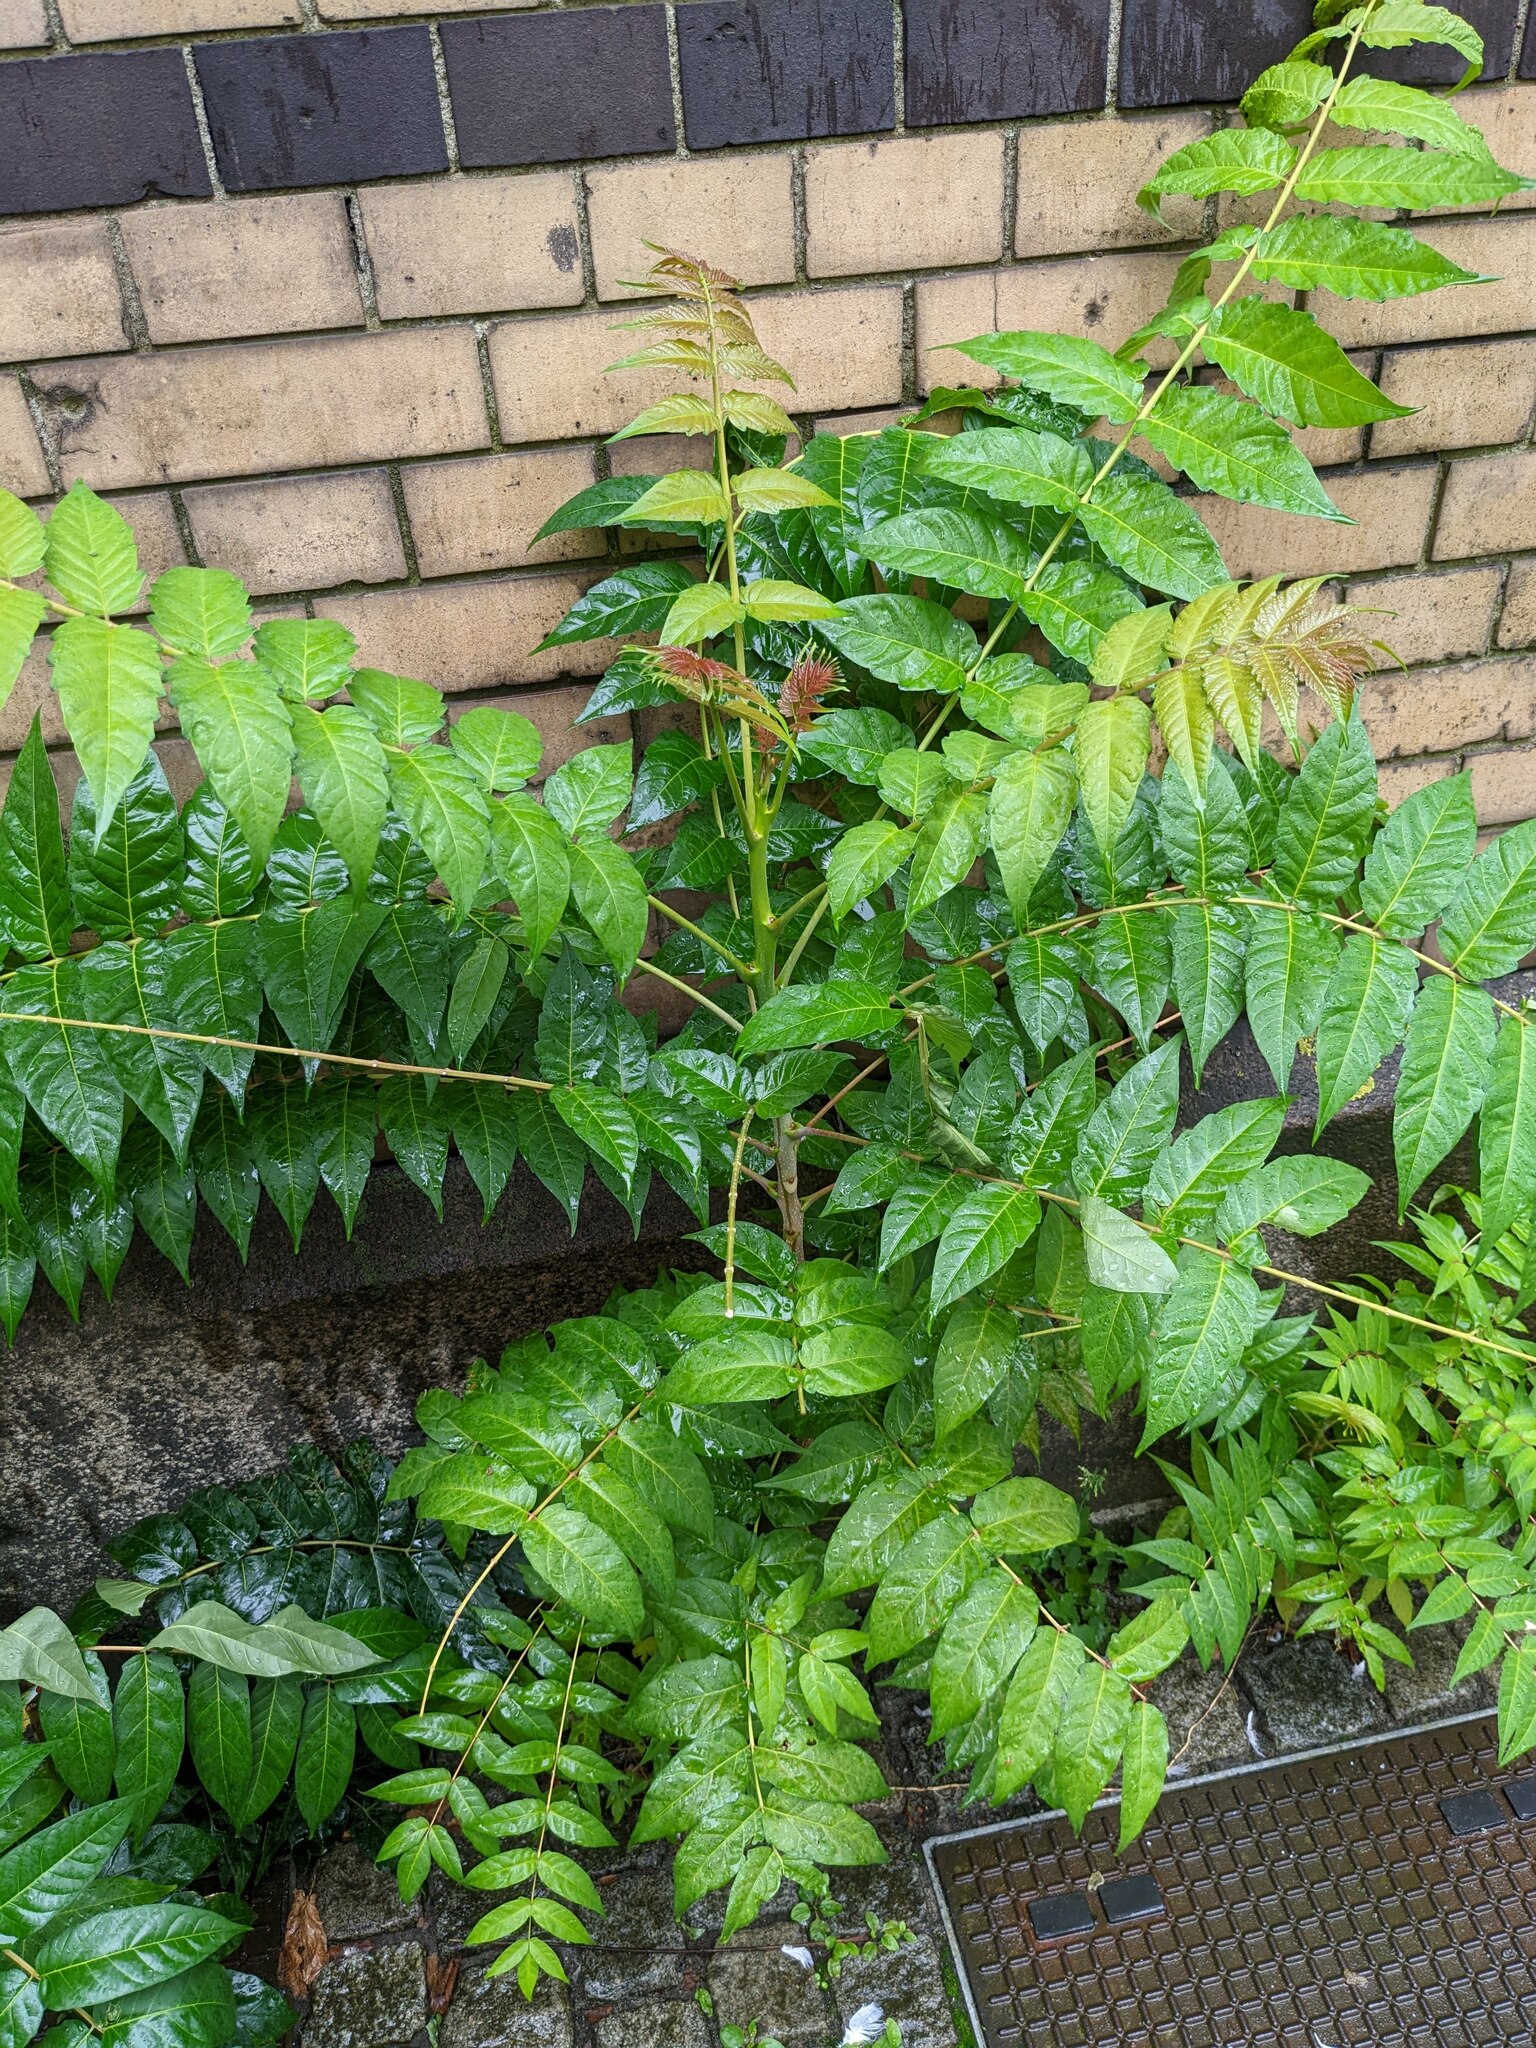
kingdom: Plantae
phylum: Tracheophyta
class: Magnoliopsida
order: Sapindales
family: Simaroubaceae
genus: Ailanthus
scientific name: Ailanthus altissima
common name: Tree-of-heaven
